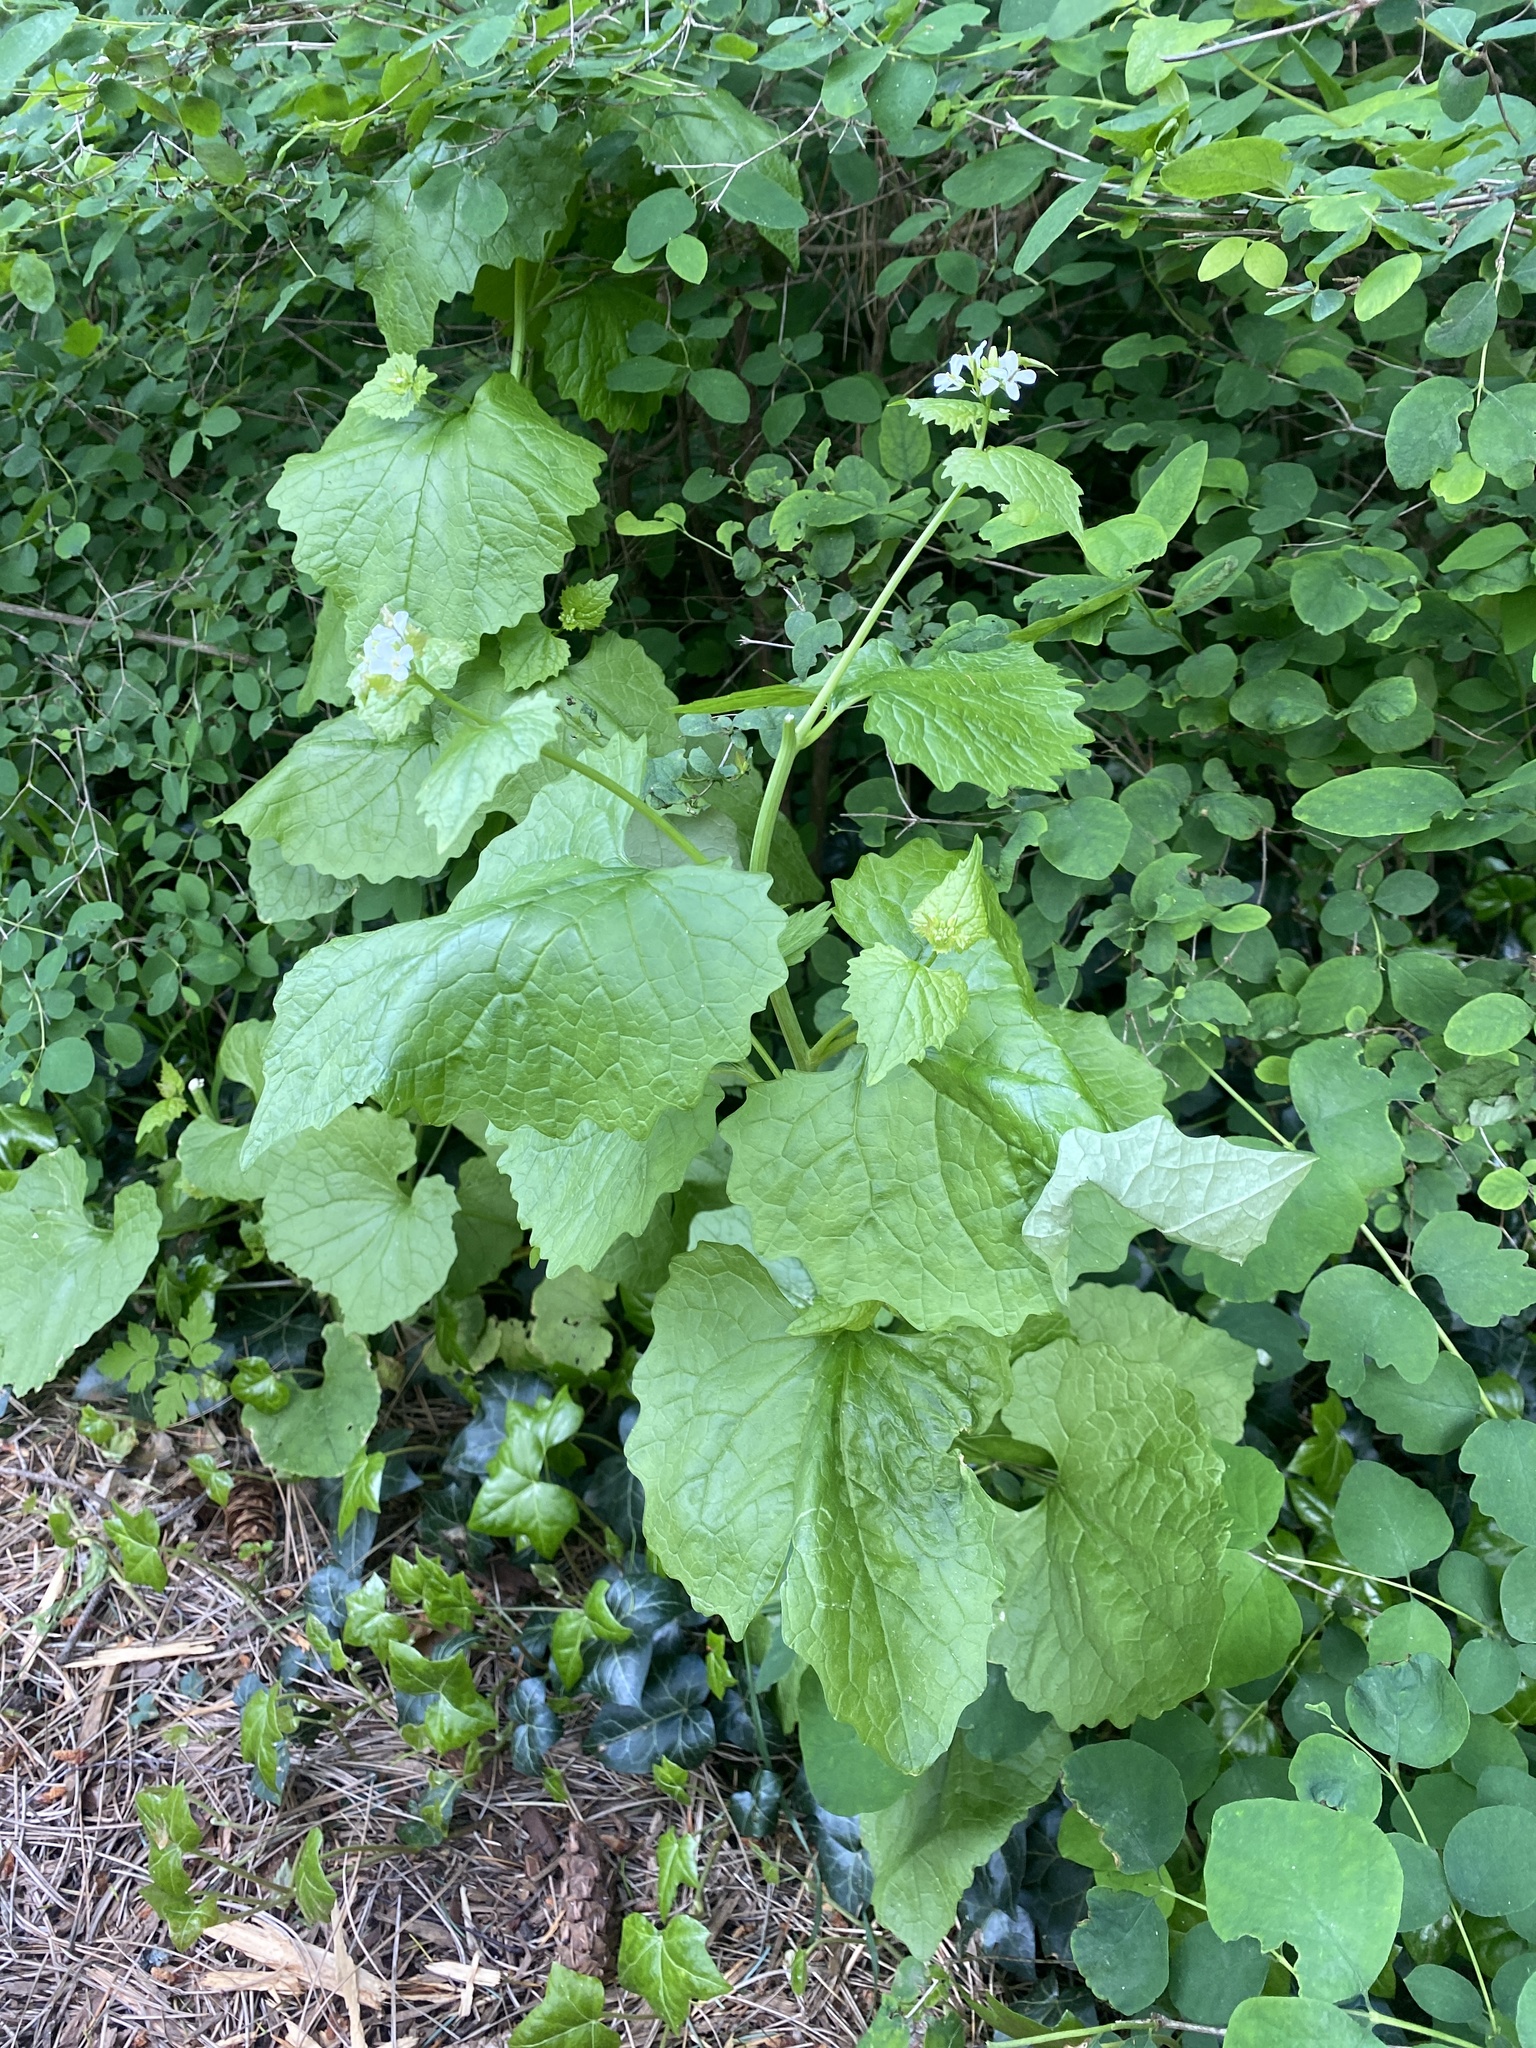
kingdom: Plantae
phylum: Tracheophyta
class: Magnoliopsida
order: Brassicales
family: Brassicaceae
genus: Alliaria
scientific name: Alliaria petiolata
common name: Garlic mustard
